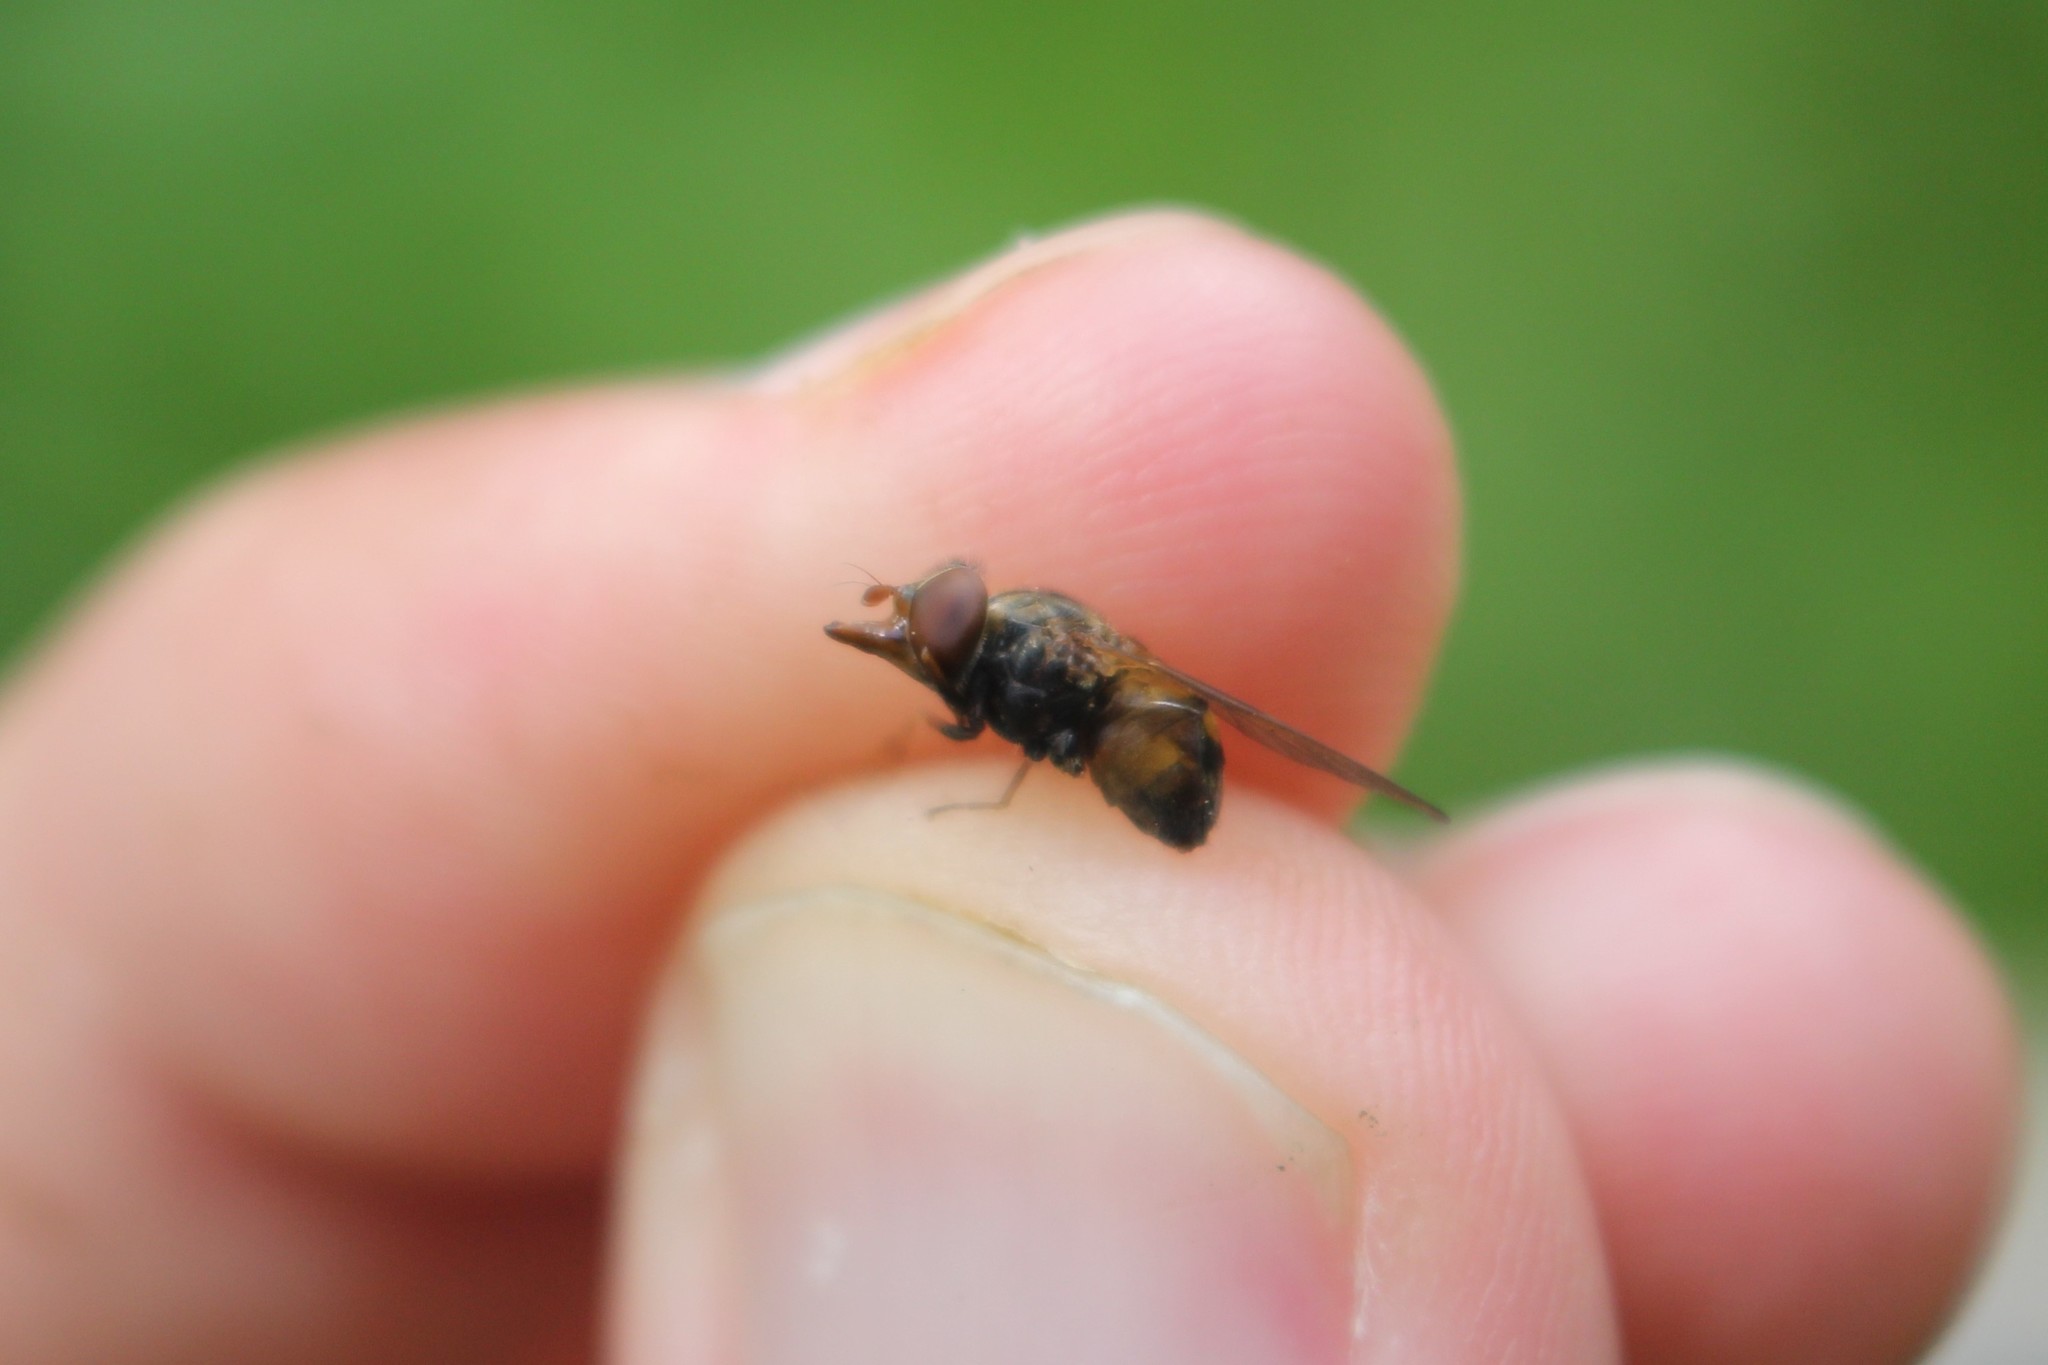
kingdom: Animalia
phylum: Arthropoda
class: Insecta
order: Diptera
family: Syrphidae
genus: Rhingia
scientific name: Rhingia nasica
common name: American snout fly
